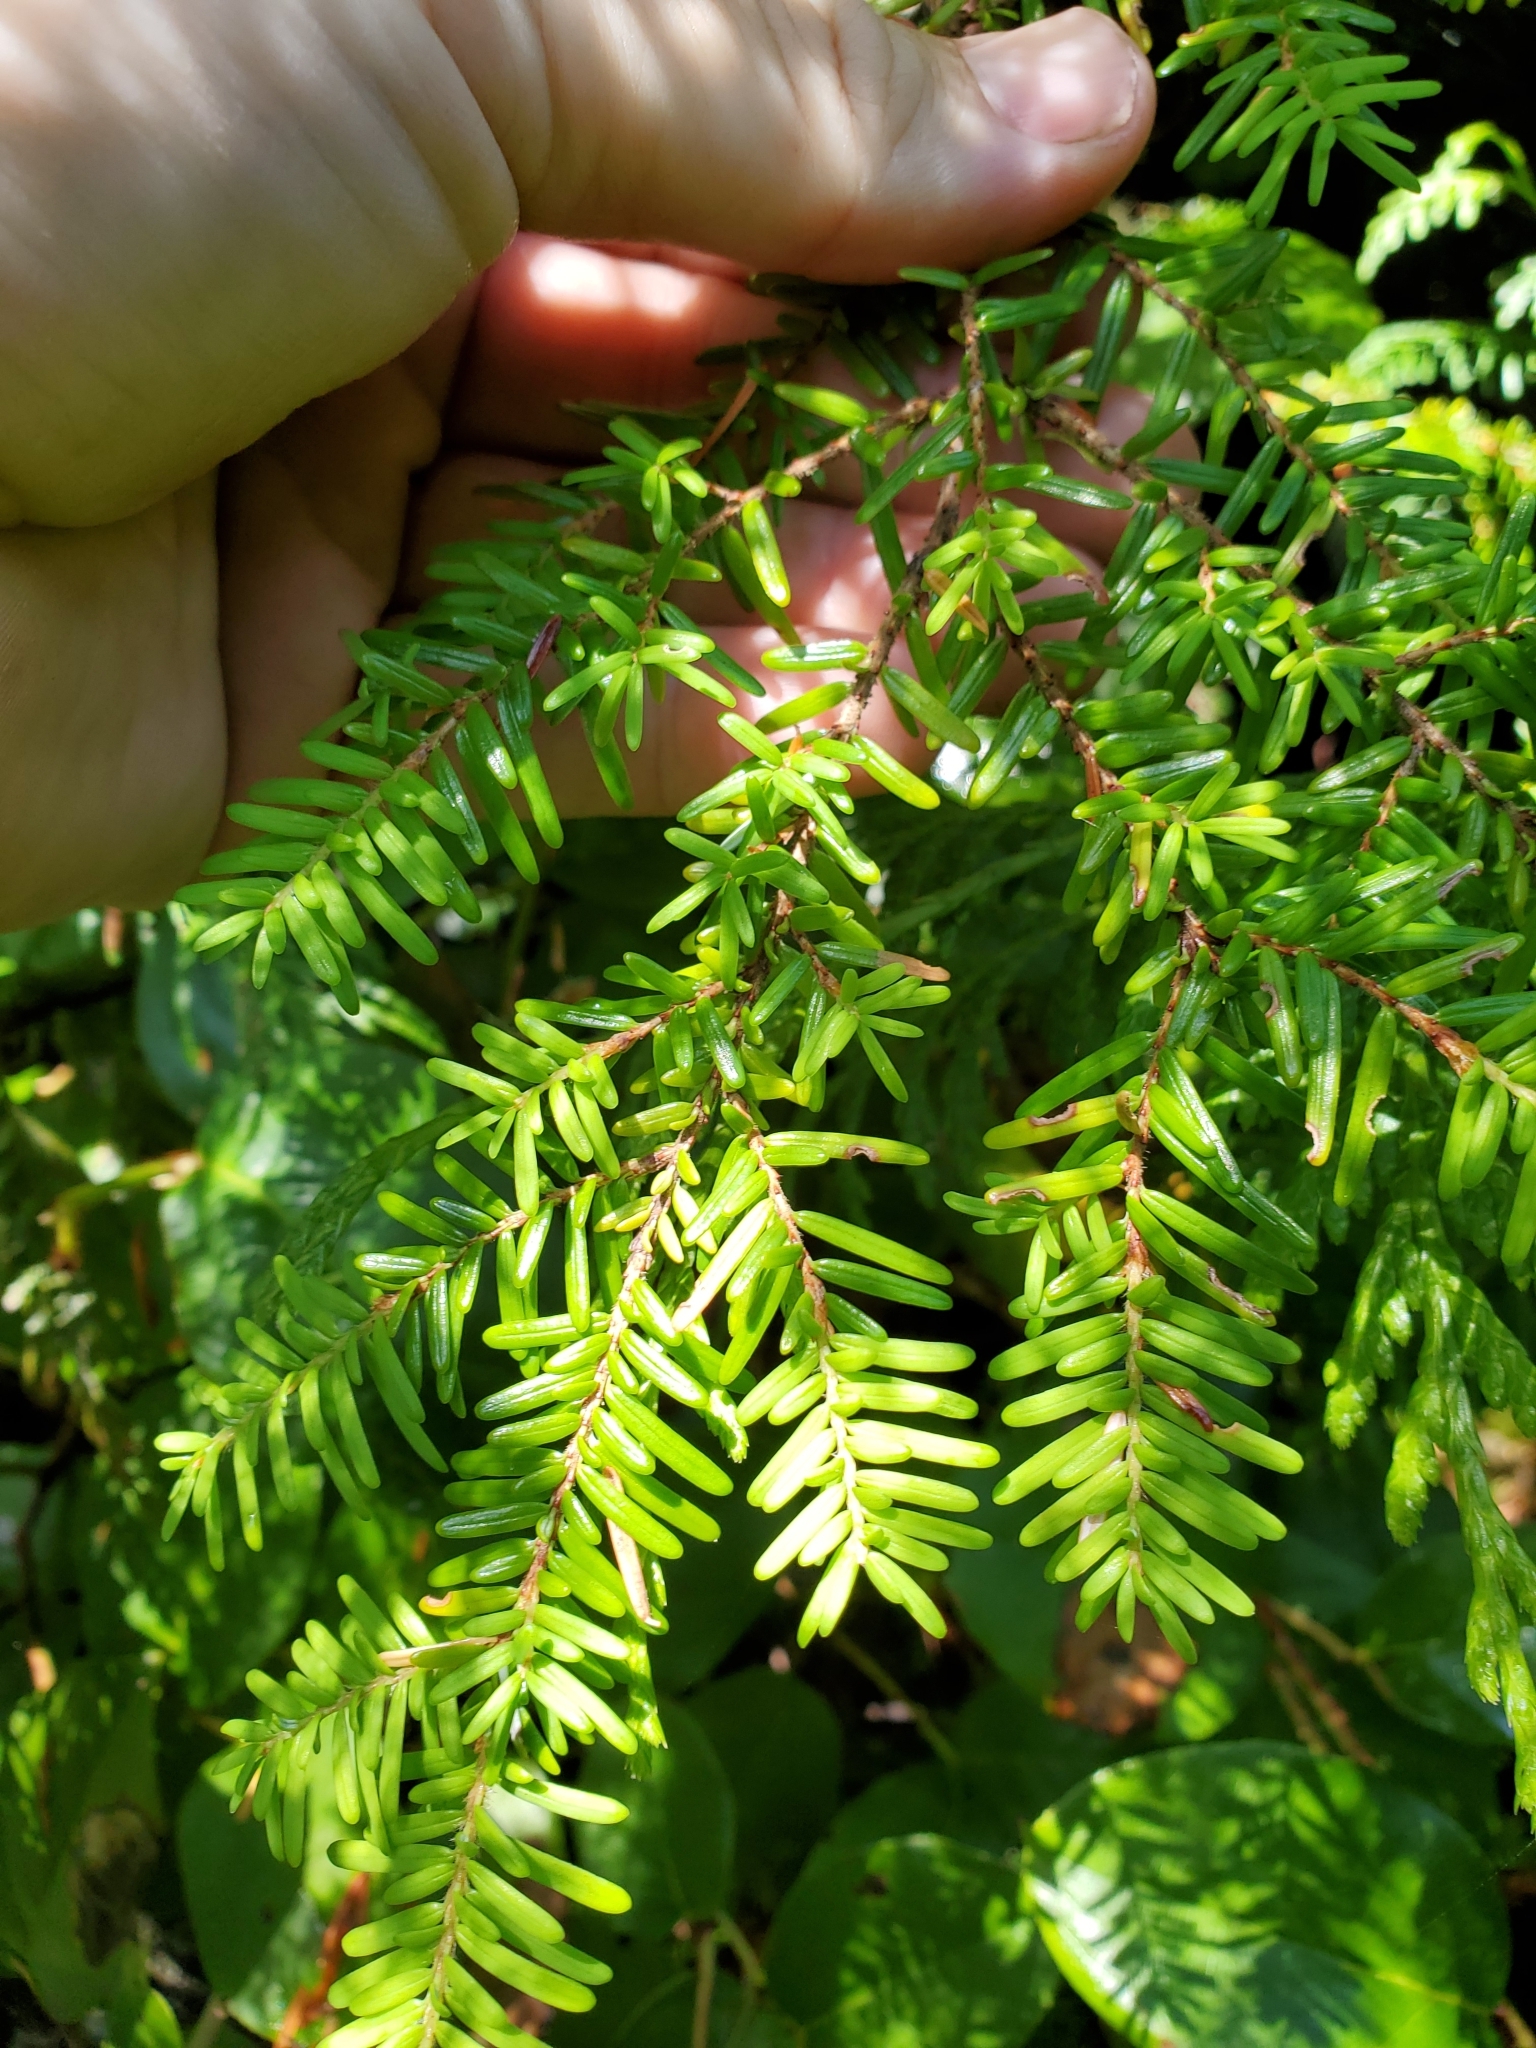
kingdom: Plantae
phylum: Tracheophyta
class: Pinopsida
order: Pinales
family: Pinaceae
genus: Tsuga
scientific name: Tsuga heterophylla
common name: Western hemlock
